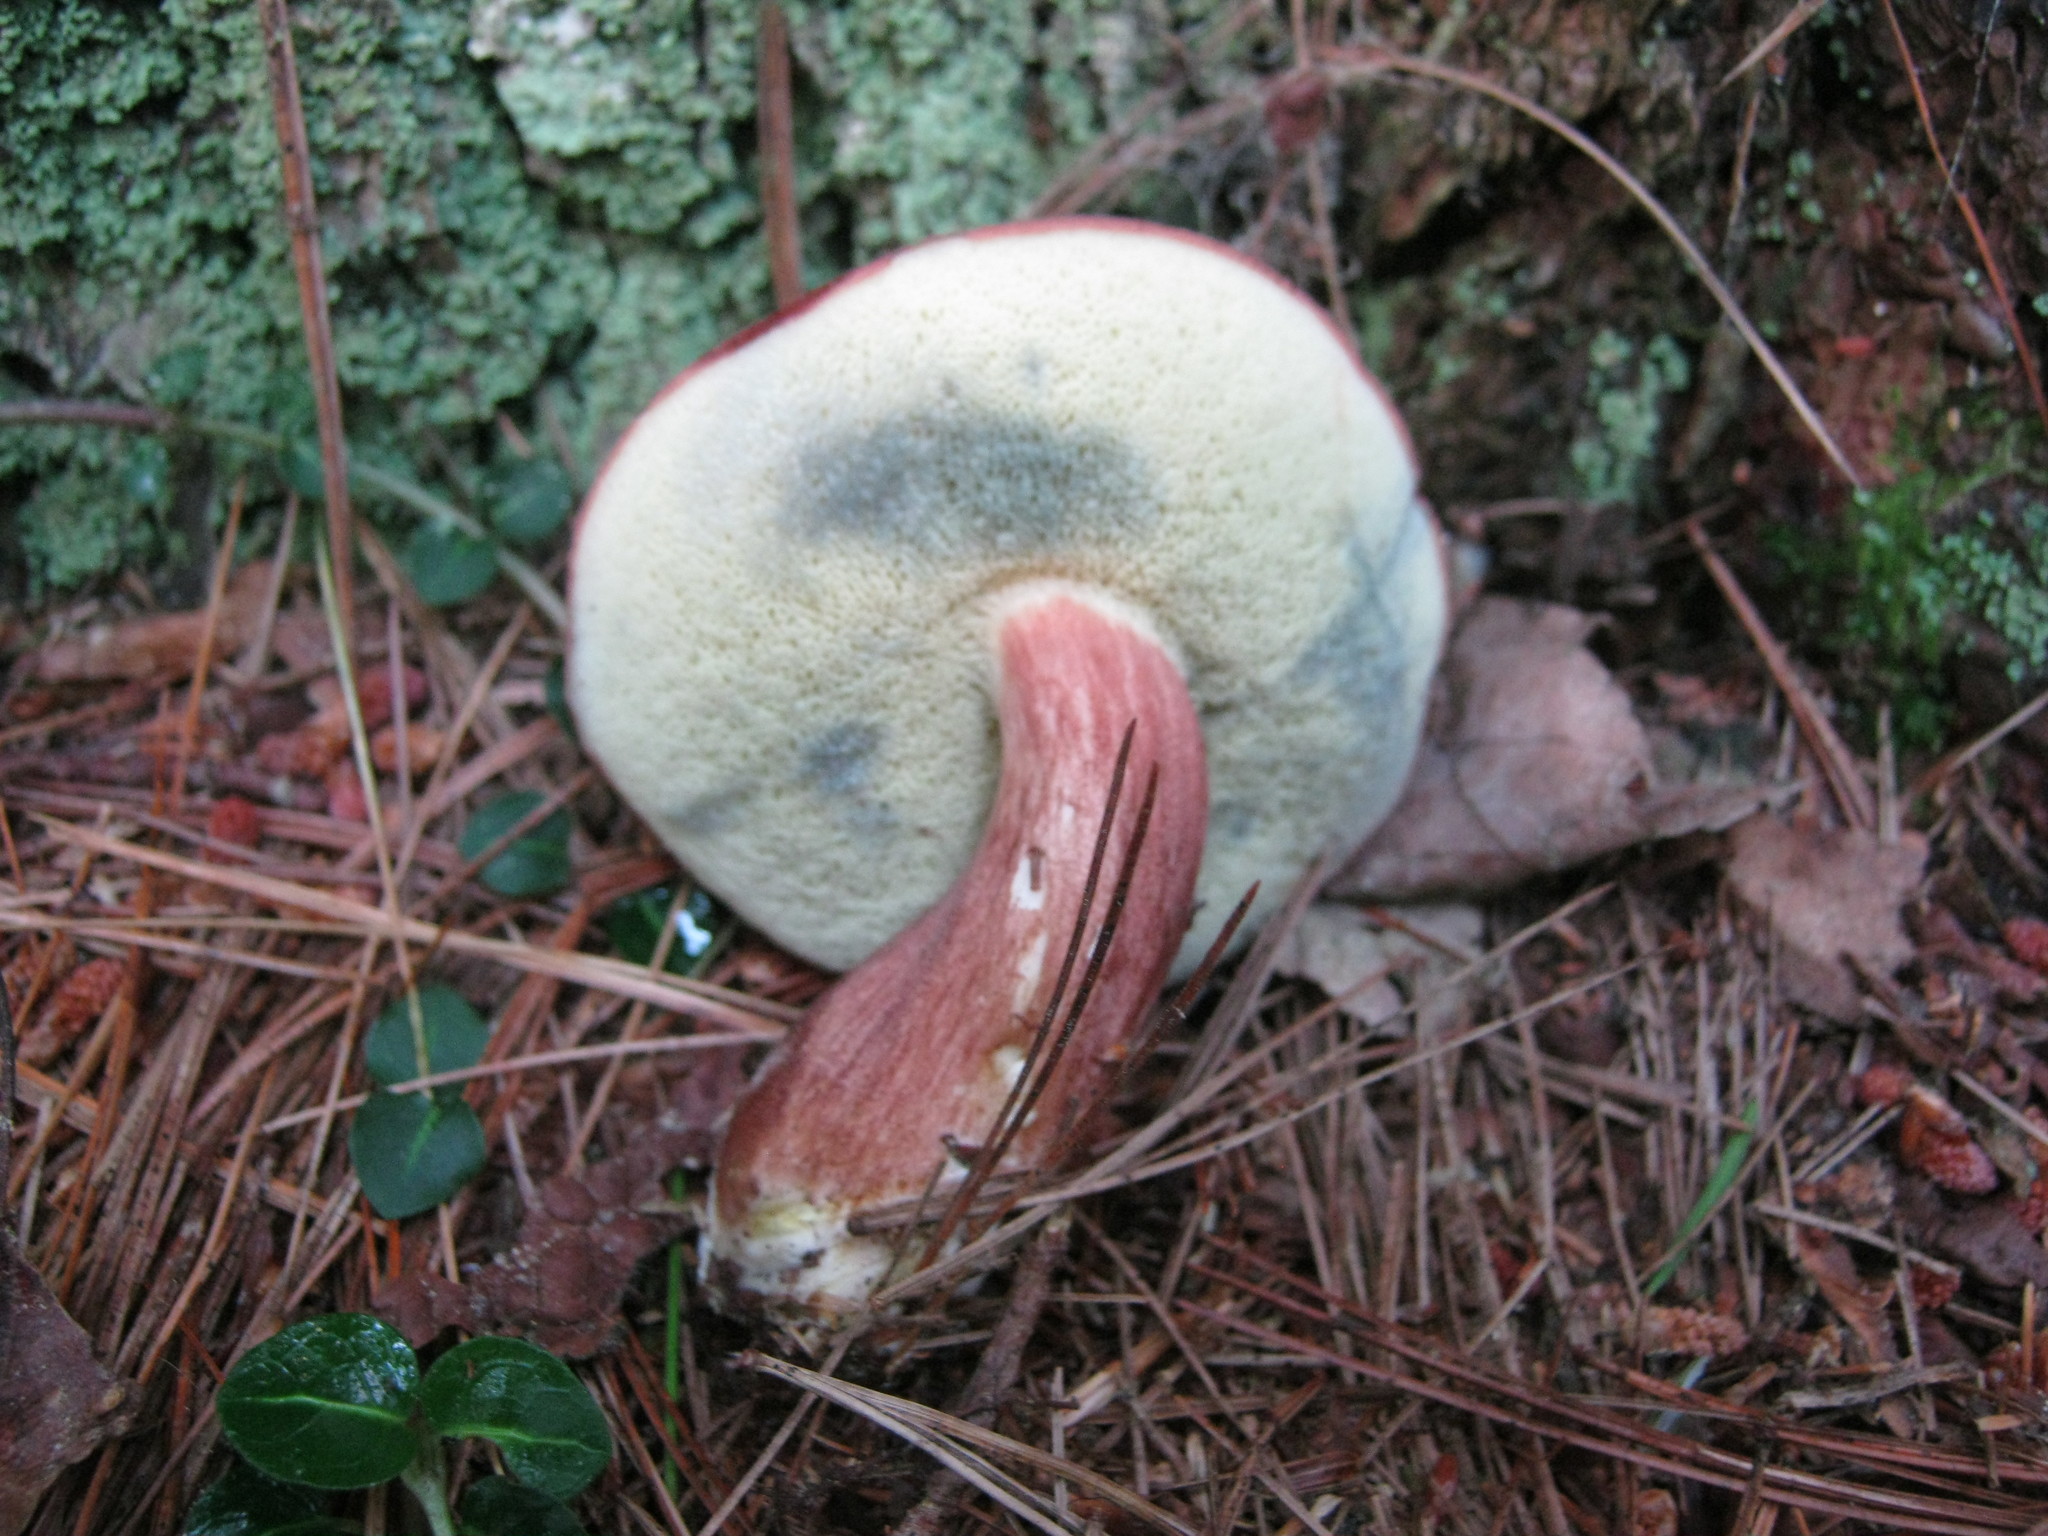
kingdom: Fungi
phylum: Basidiomycota
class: Agaricomycetes
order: Boletales
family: Boletaceae
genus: Imleria
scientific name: Imleria badia
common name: Bay bolete
